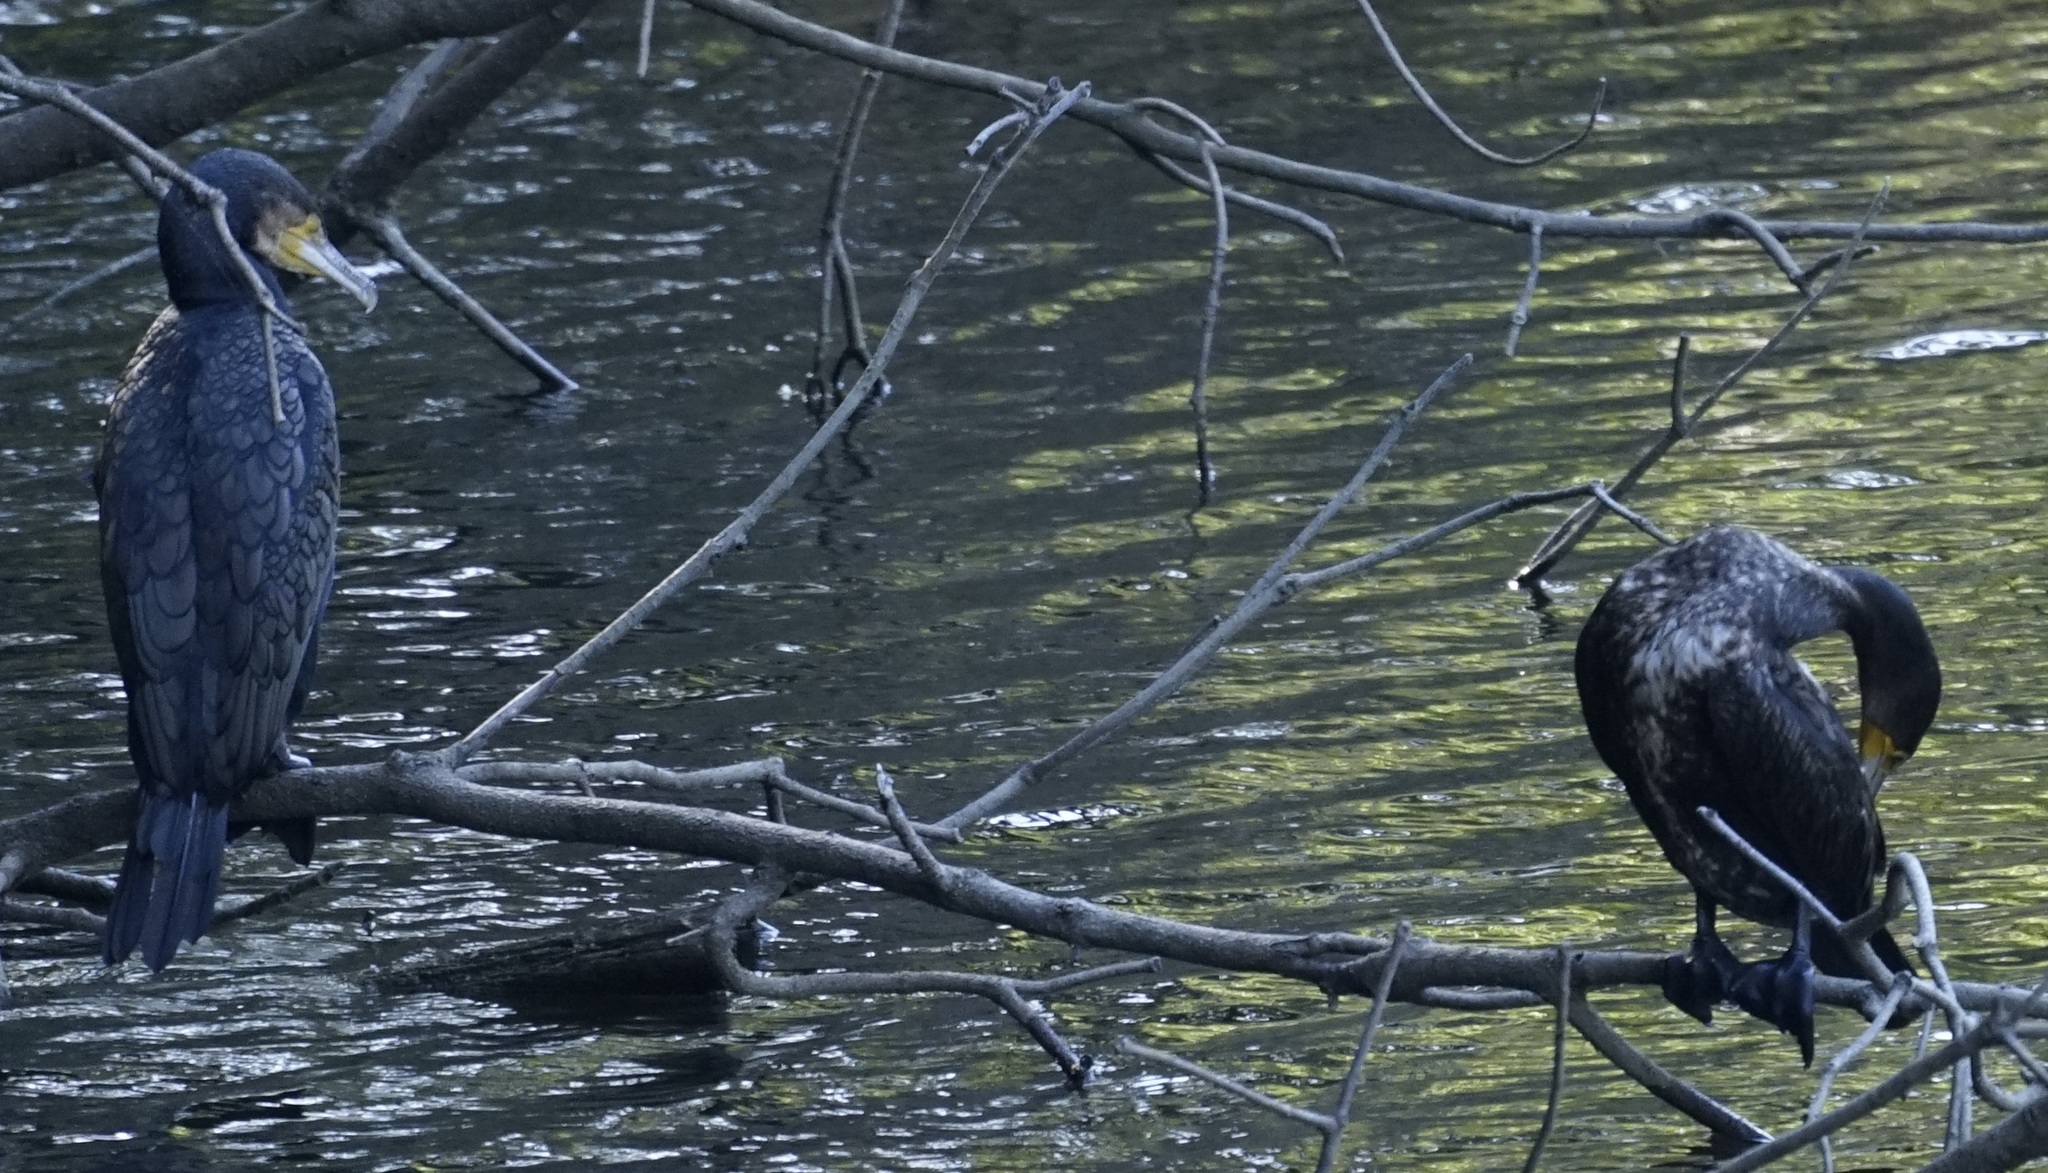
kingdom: Animalia
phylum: Chordata
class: Aves
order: Suliformes
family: Phalacrocoracidae
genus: Phalacrocorax
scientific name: Phalacrocorax carbo
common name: Great cormorant
